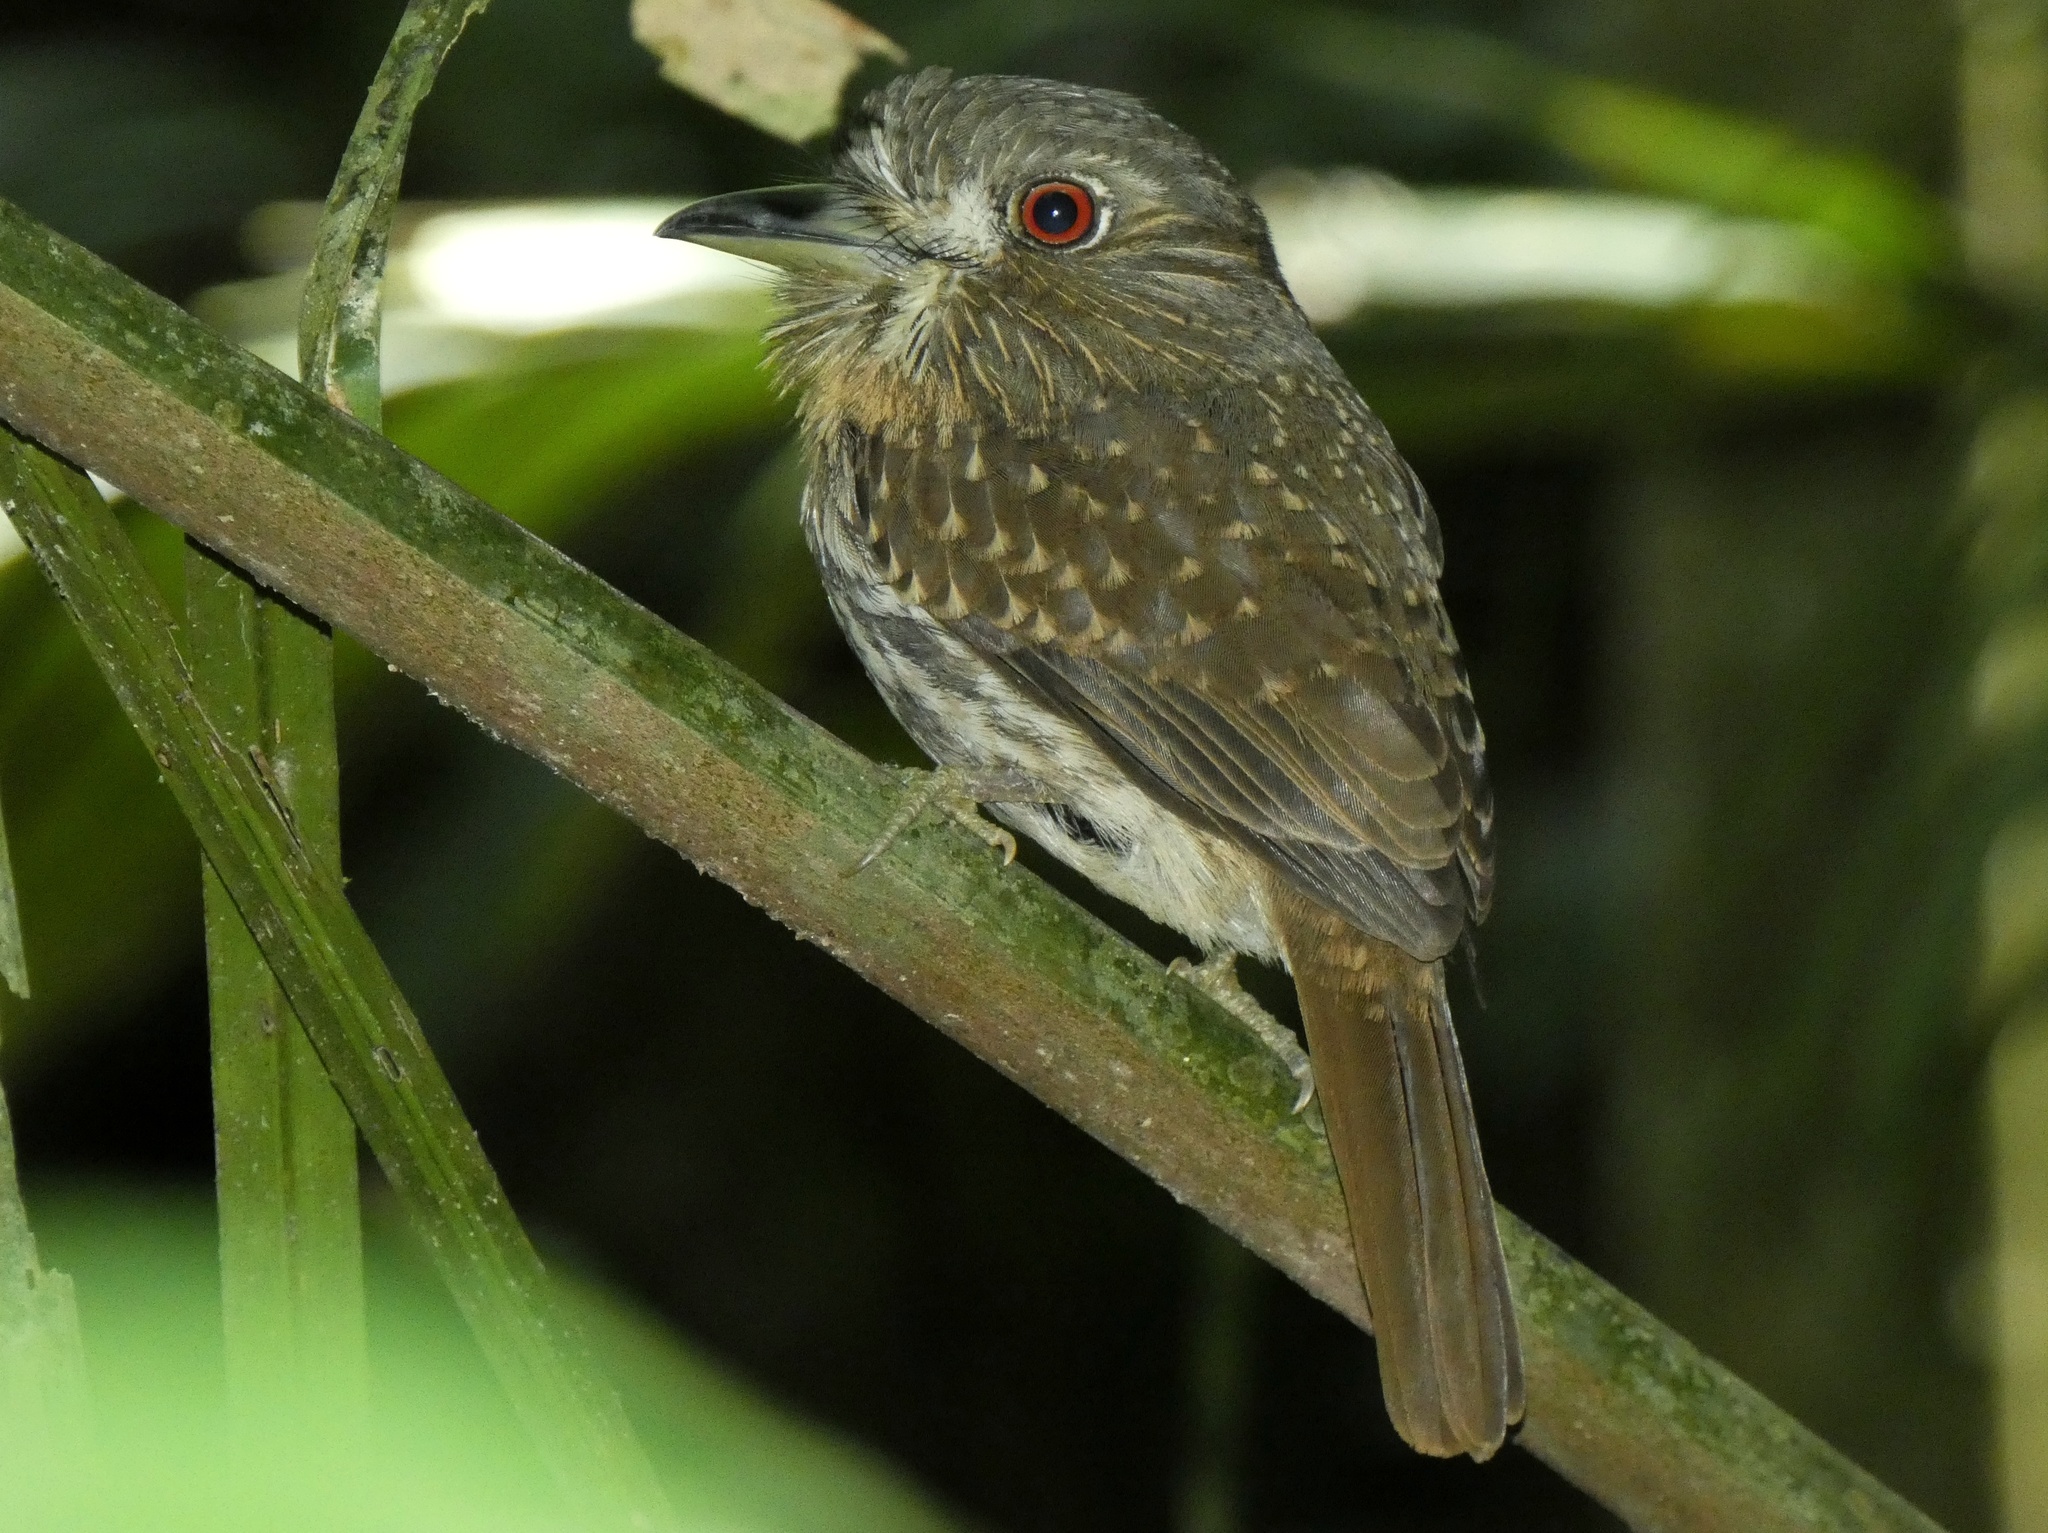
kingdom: Animalia
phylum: Chordata
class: Aves
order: Piciformes
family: Bucconidae
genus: Malacoptila
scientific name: Malacoptila panamensis
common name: White-whiskered puffbird
